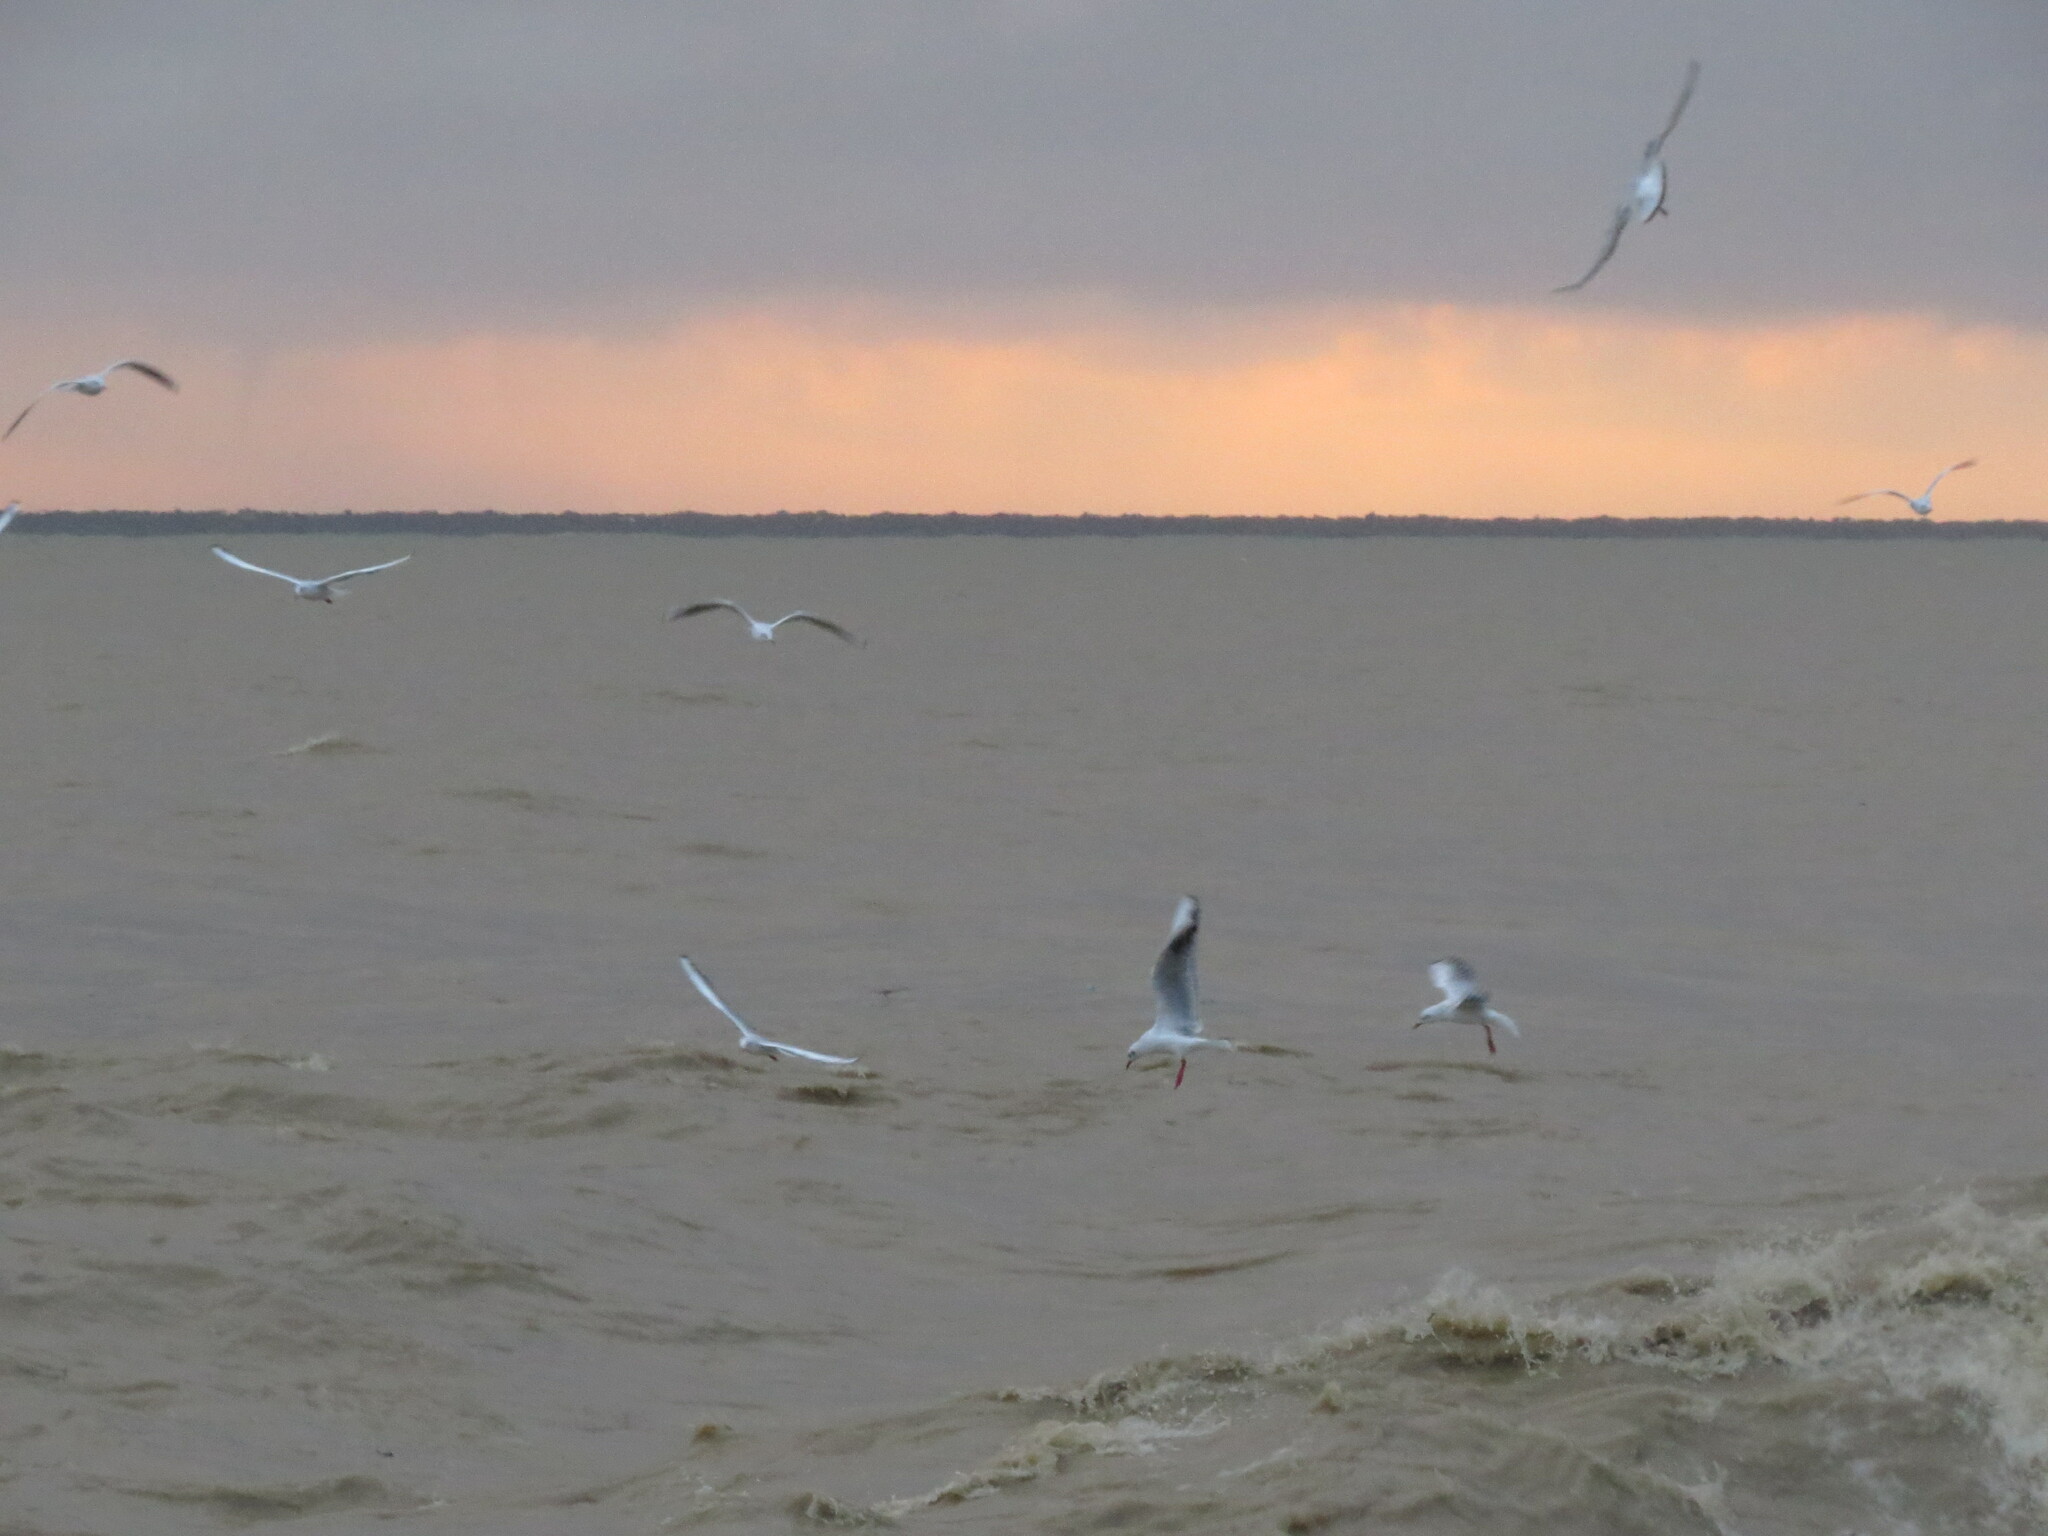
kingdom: Animalia
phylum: Chordata
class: Aves
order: Charadriiformes
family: Laridae
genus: Chroicocephalus
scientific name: Chroicocephalus ridibundus
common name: Black-headed gull
